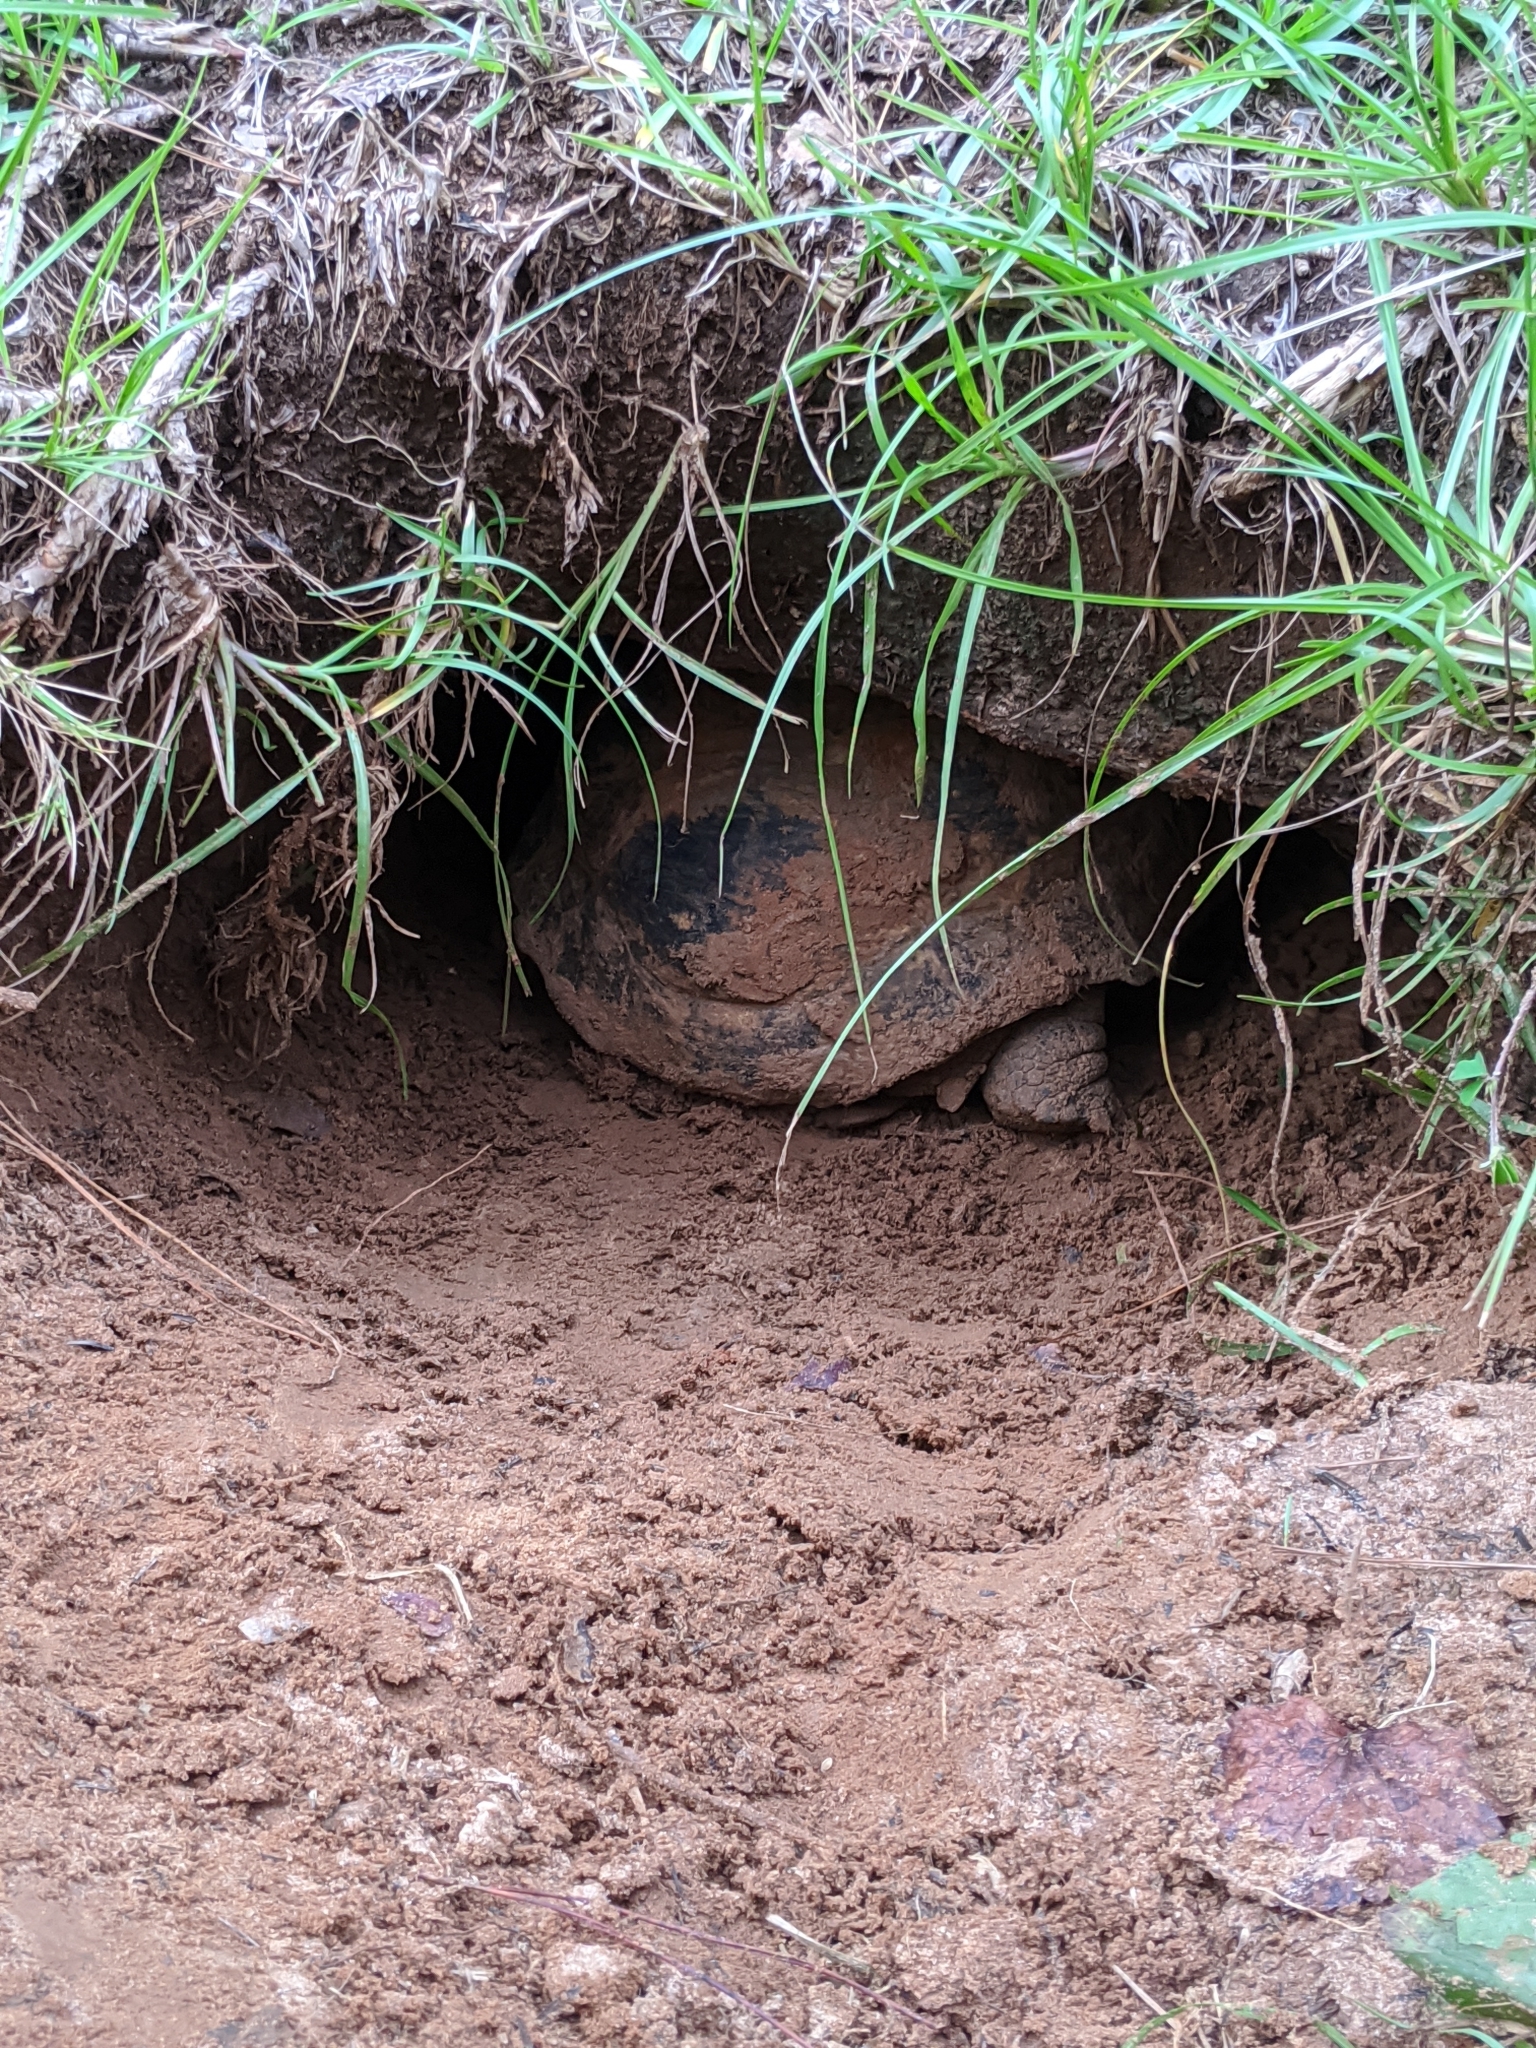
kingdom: Animalia
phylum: Chordata
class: Testudines
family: Testudinidae
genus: Gopherus
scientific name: Gopherus polyphemus
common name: Florida gopher tortoise
